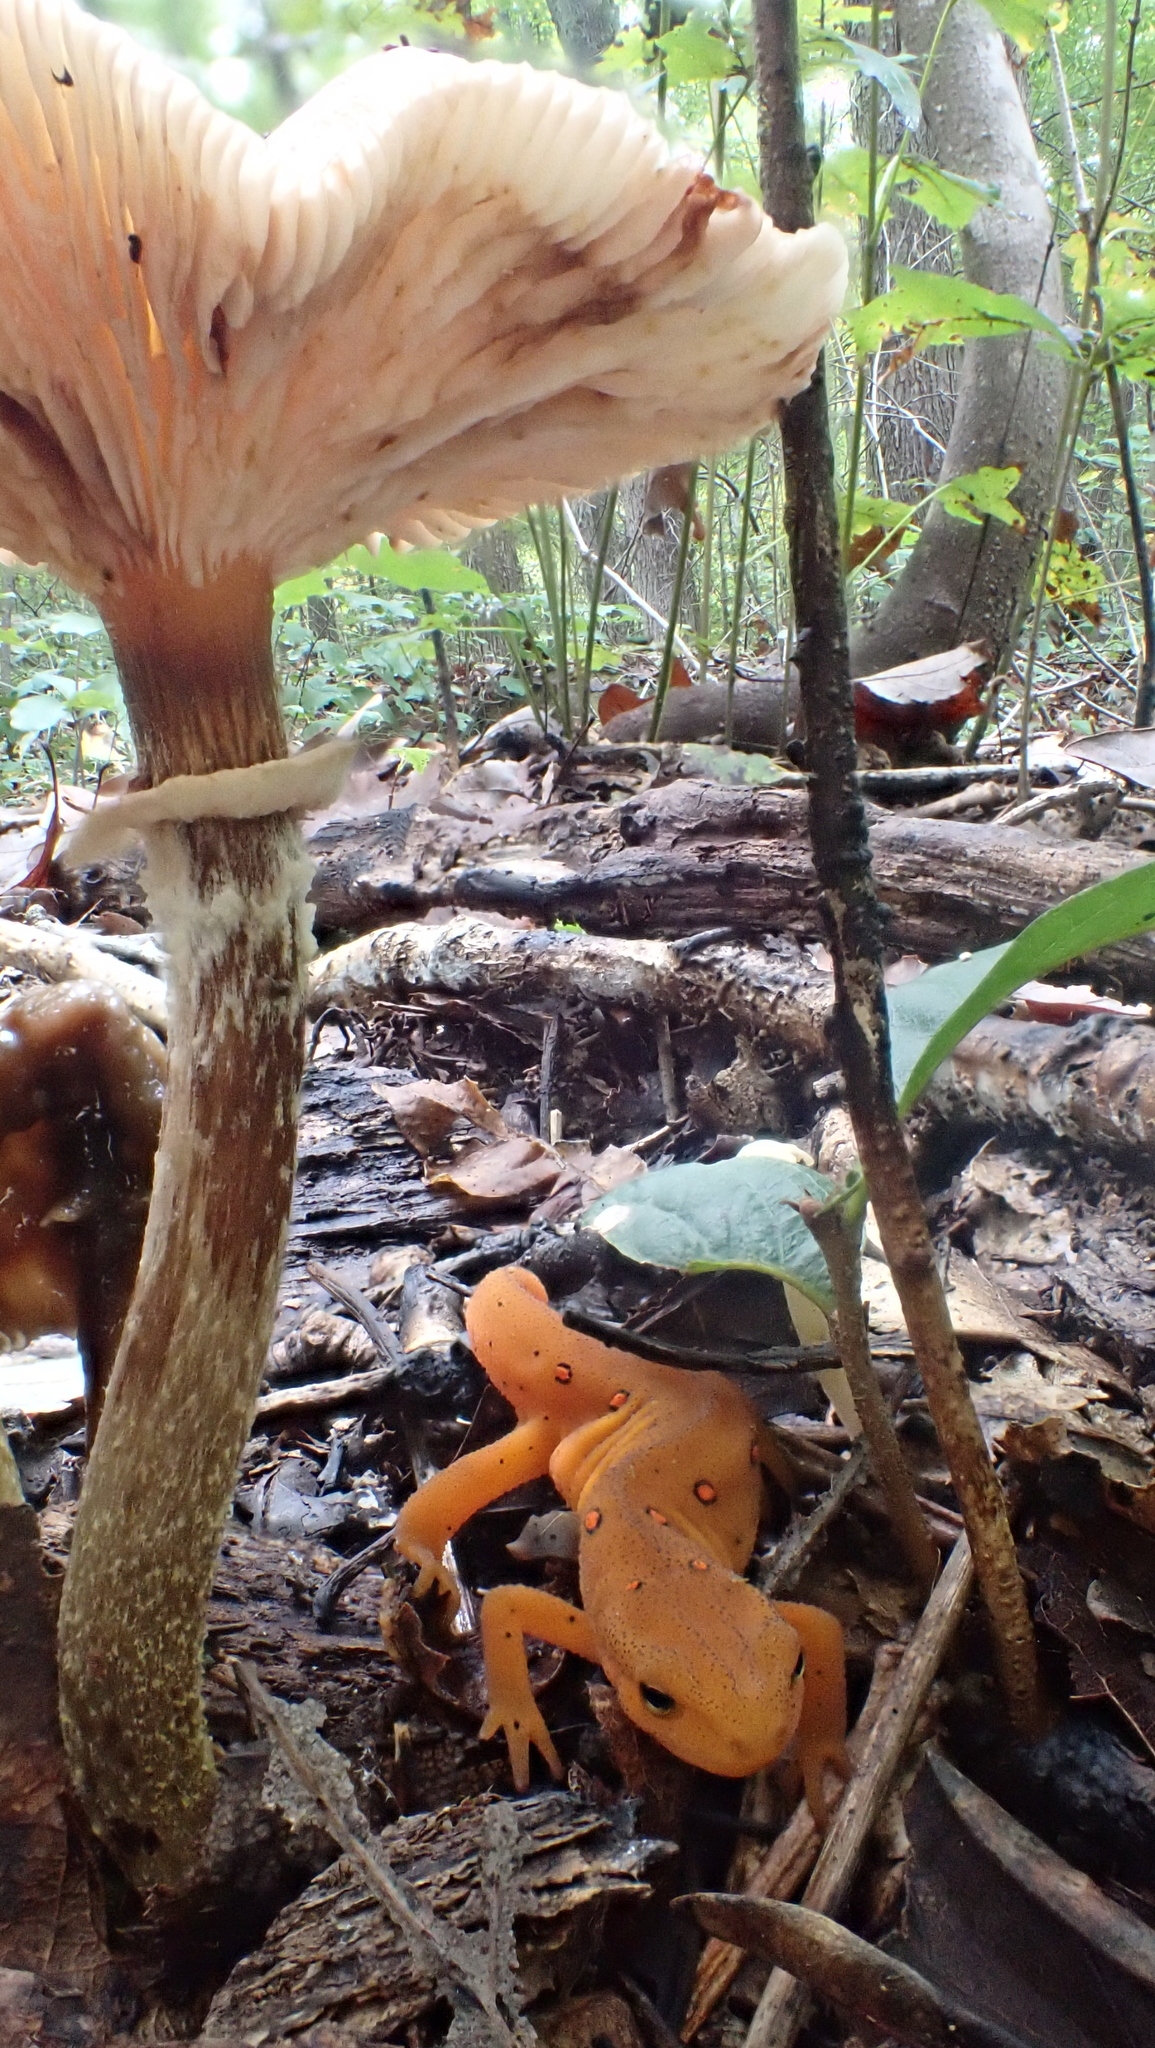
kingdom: Animalia
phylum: Chordata
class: Amphibia
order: Caudata
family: Salamandridae
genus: Notophthalmus
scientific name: Notophthalmus viridescens
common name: Eastern newt
